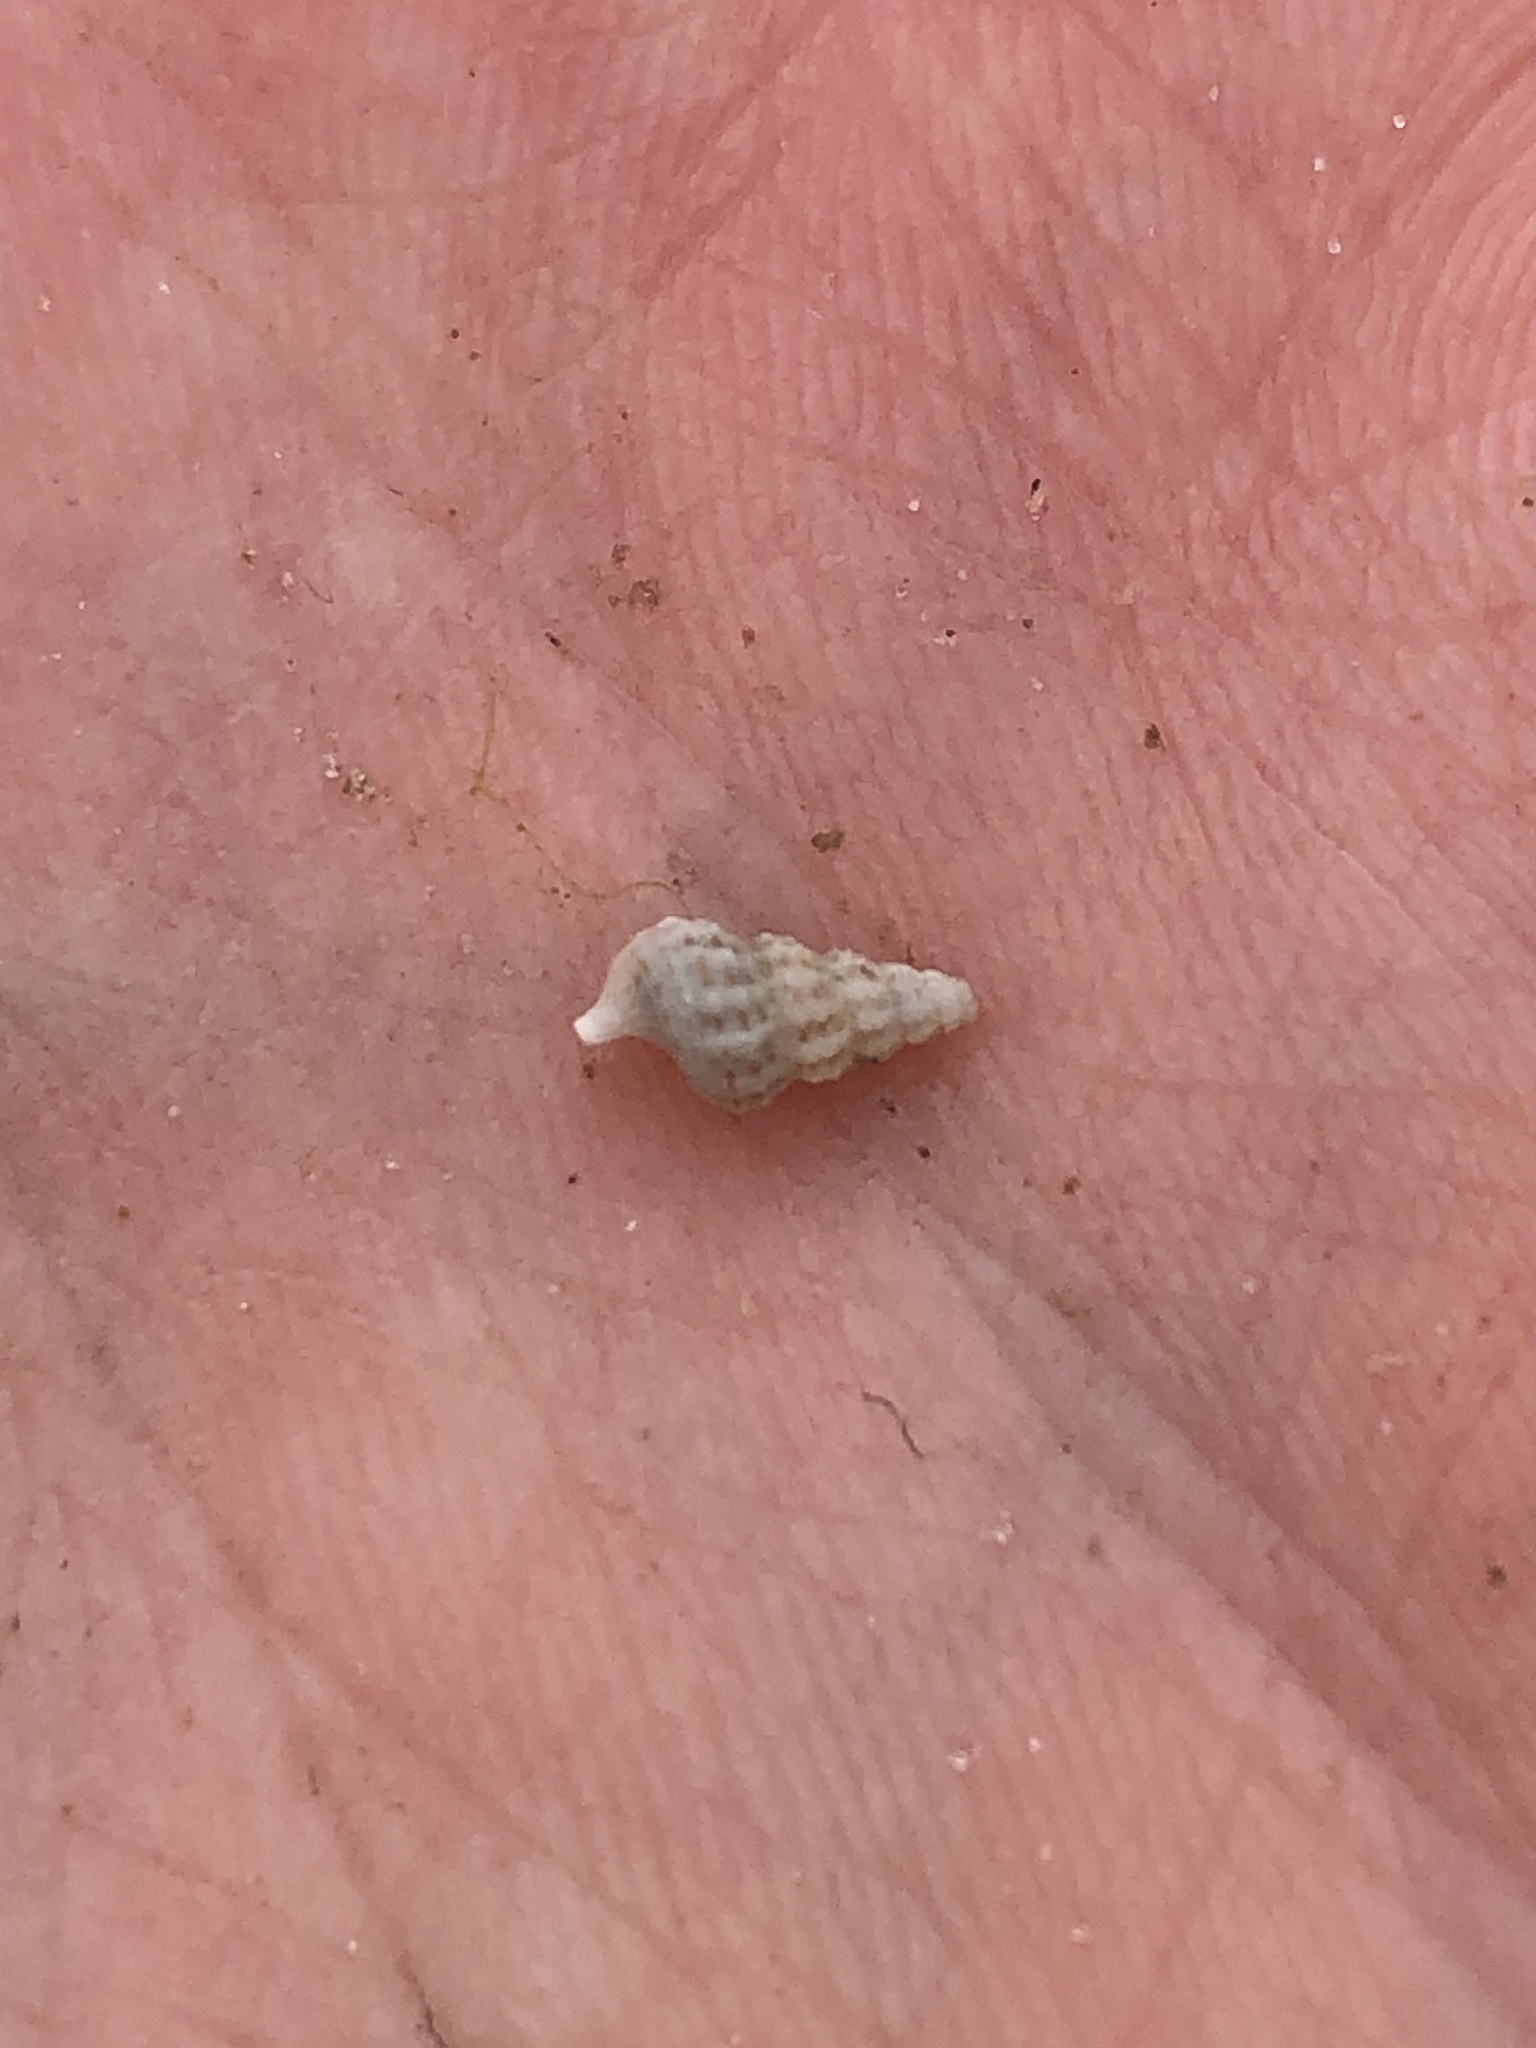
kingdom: Animalia
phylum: Mollusca
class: Gastropoda
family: Cerithiidae
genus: Cerithium
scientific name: Cerithium muscarum
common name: Fly-specked cerith
